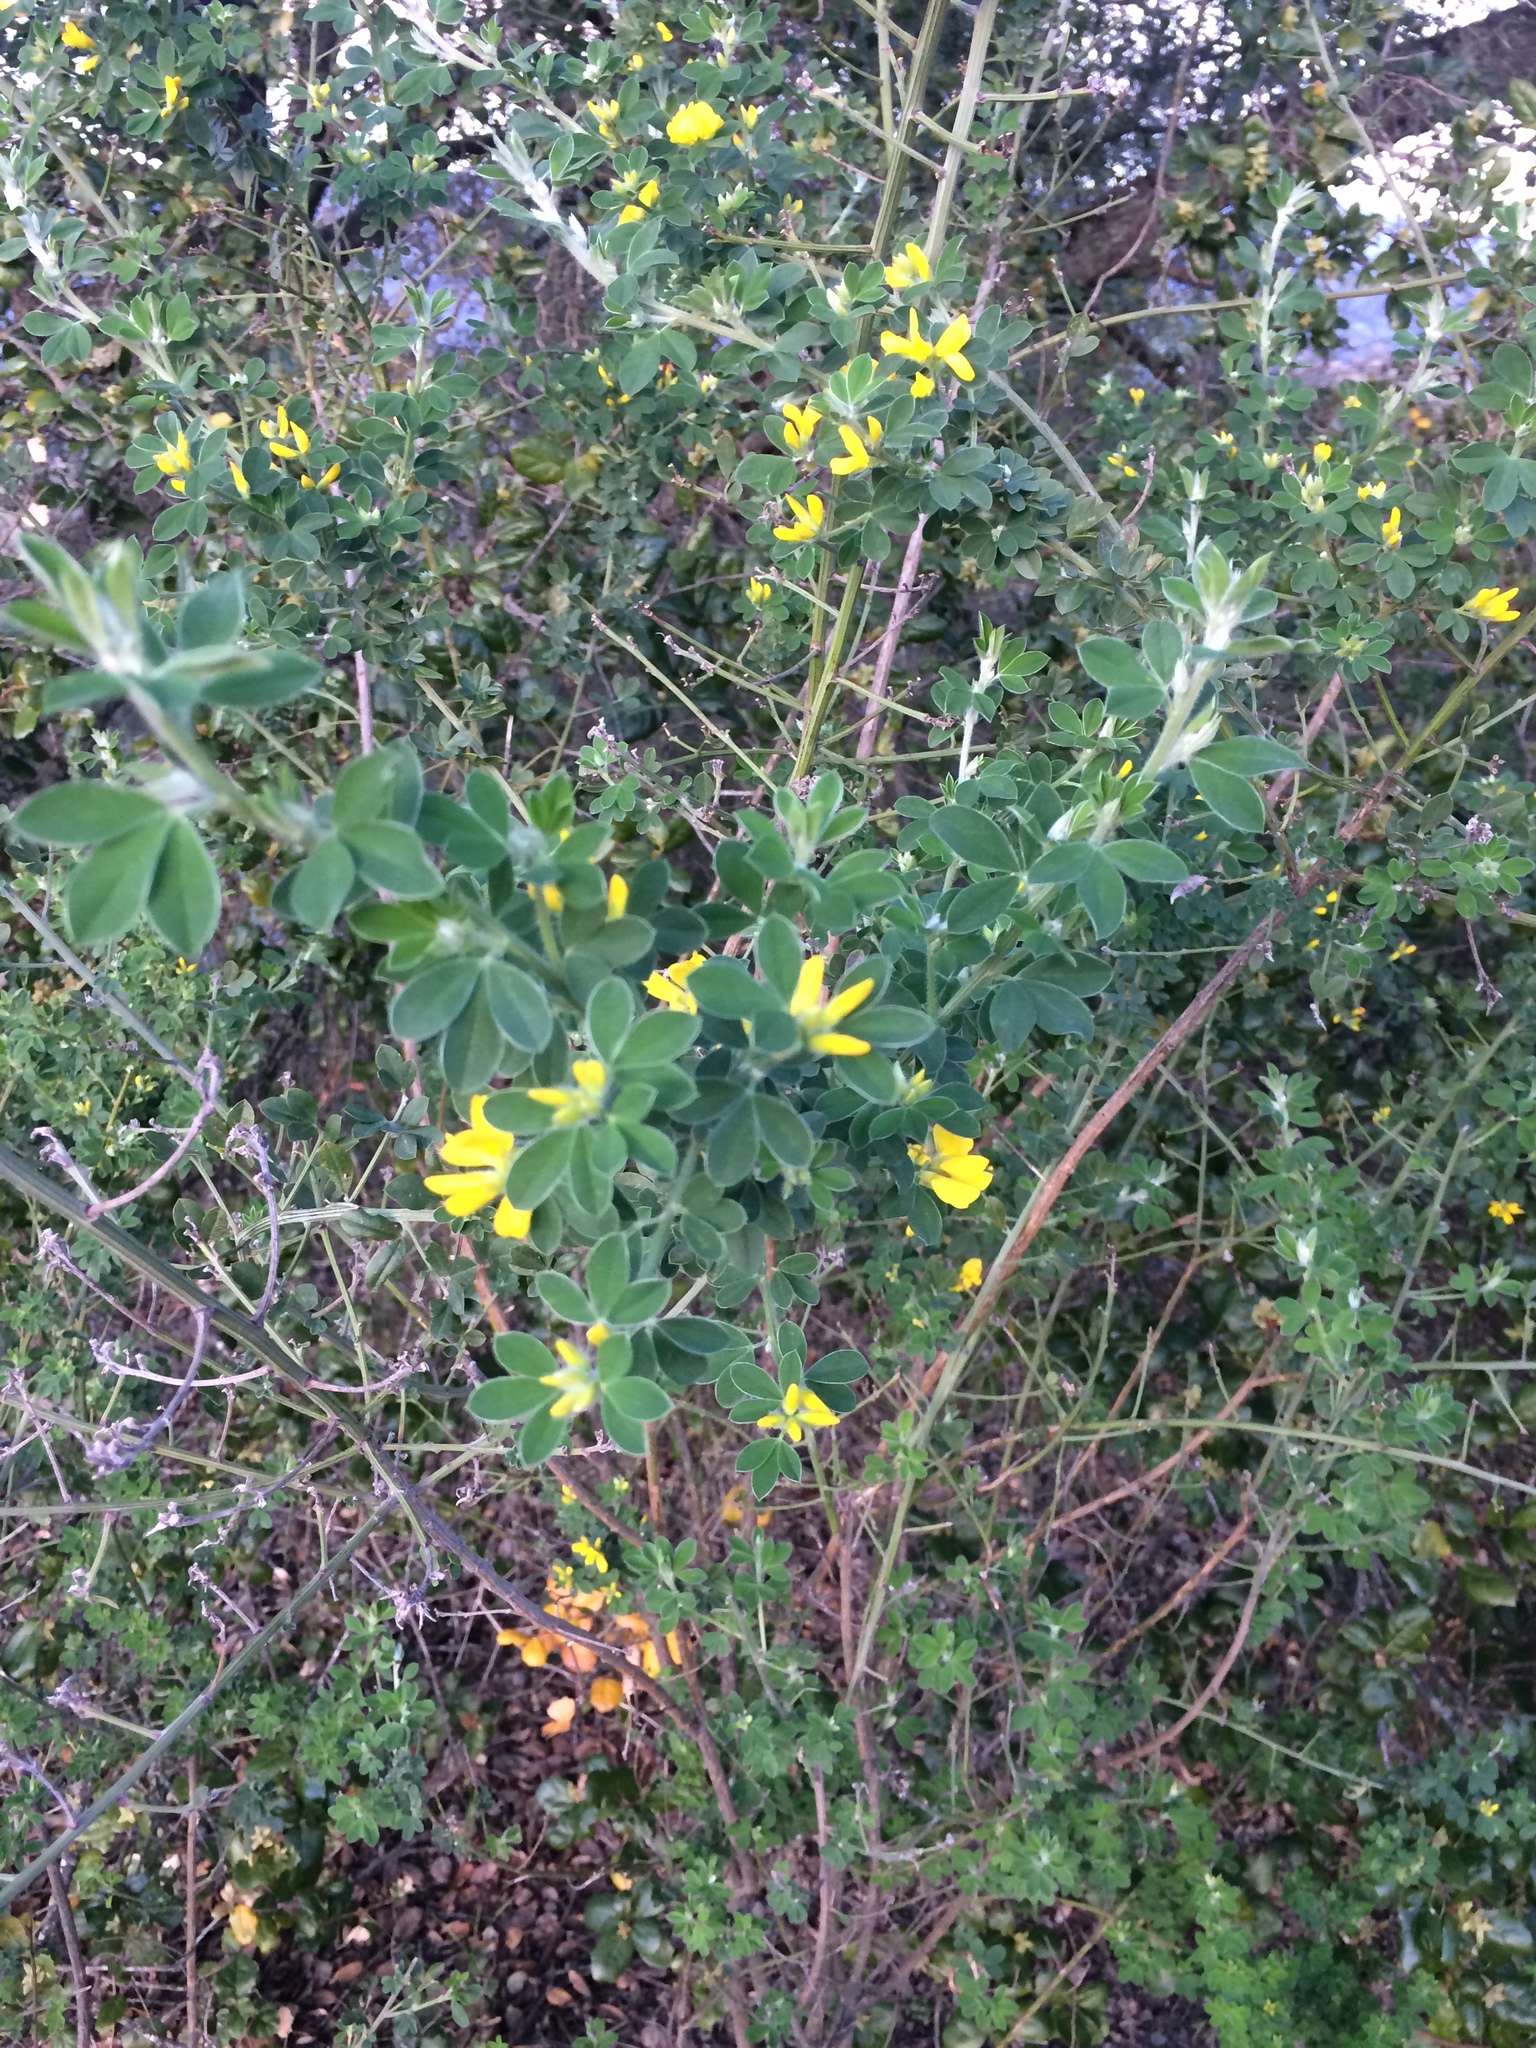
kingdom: Plantae
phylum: Tracheophyta
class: Magnoliopsida
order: Fabales
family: Fabaceae
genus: Genista
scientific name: Genista monspessulana
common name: Montpellier broom
